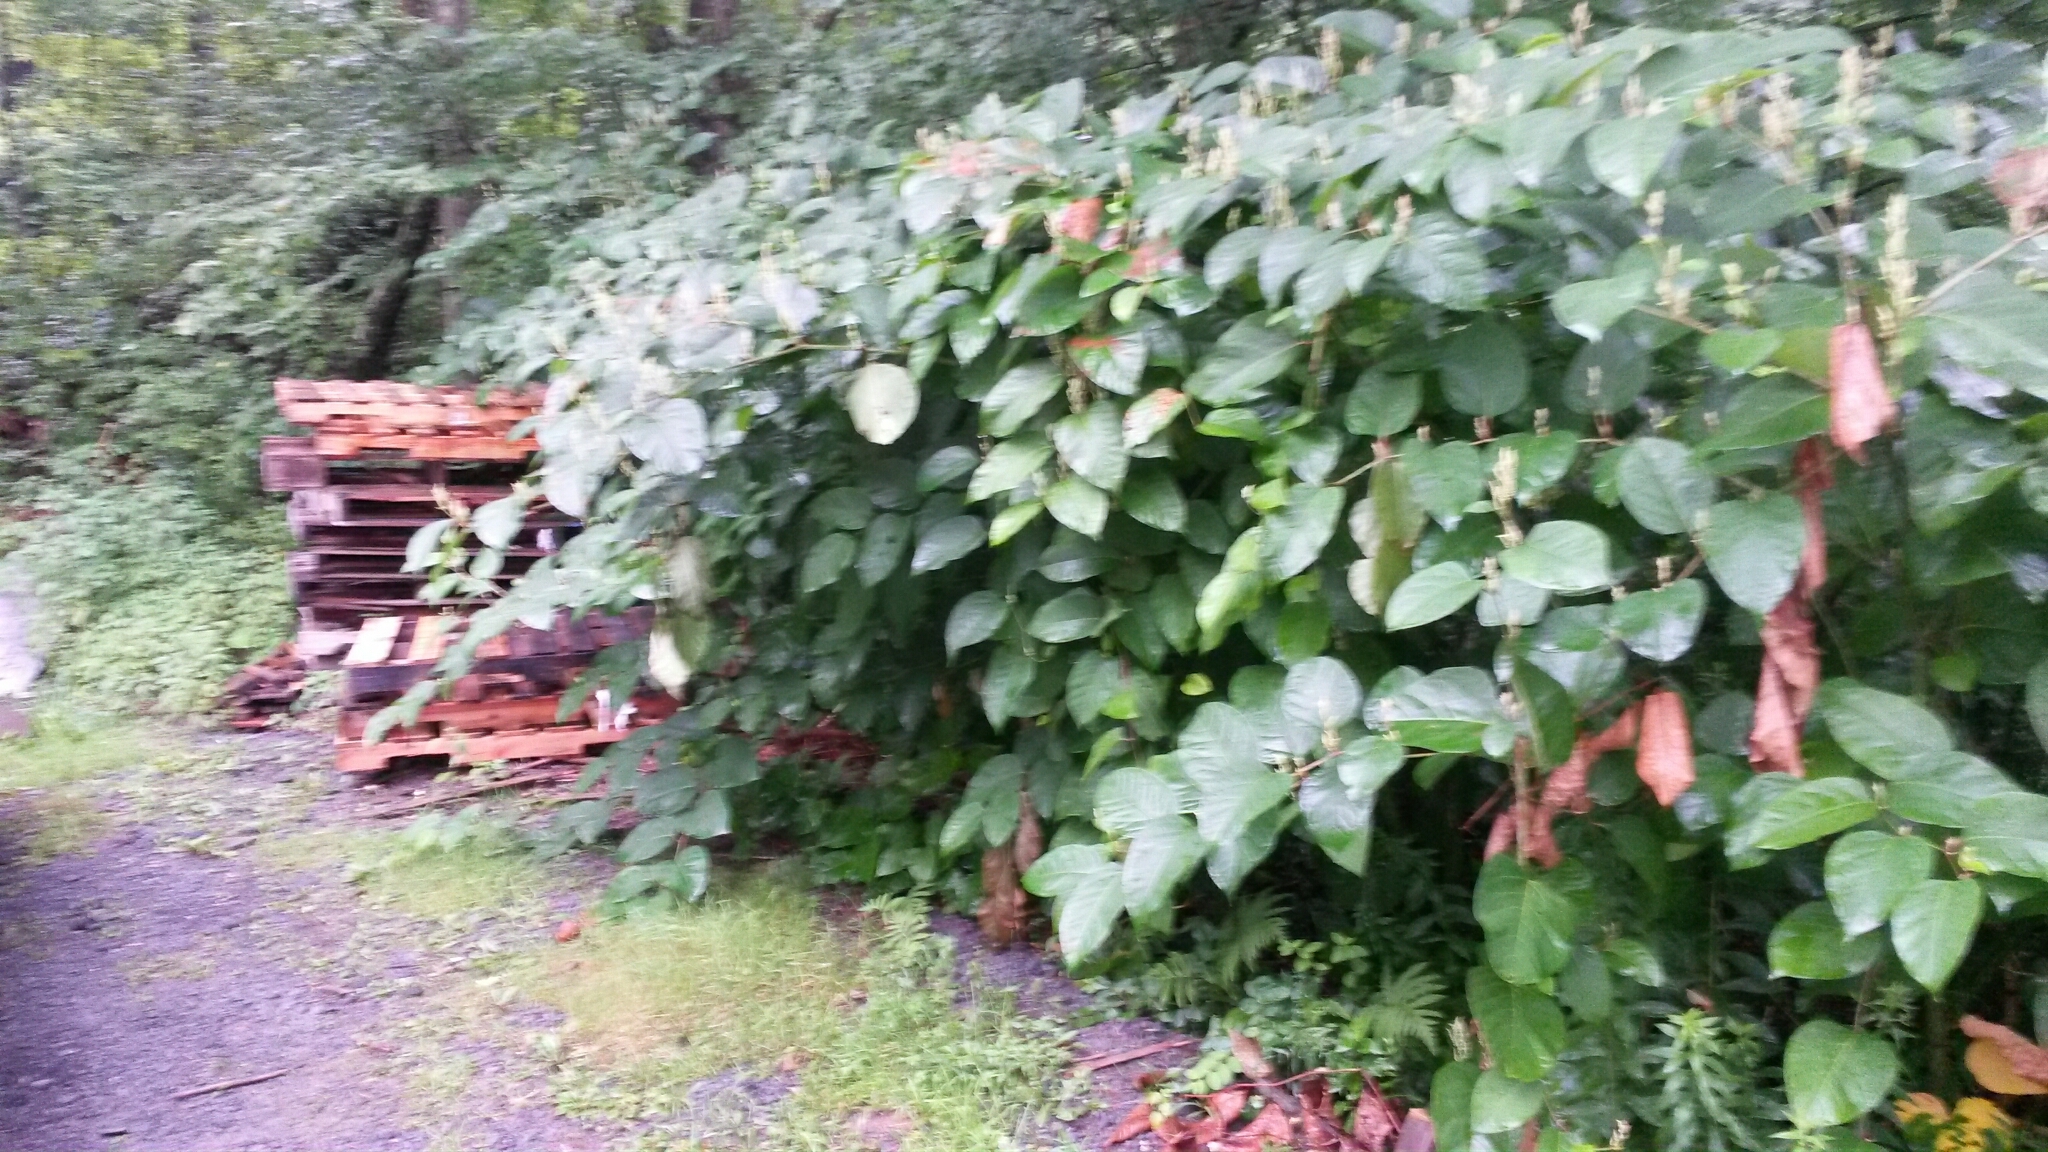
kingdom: Plantae
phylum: Tracheophyta
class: Magnoliopsida
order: Caryophyllales
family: Polygonaceae
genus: Reynoutria
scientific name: Reynoutria japonica
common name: Japanese knotweed
